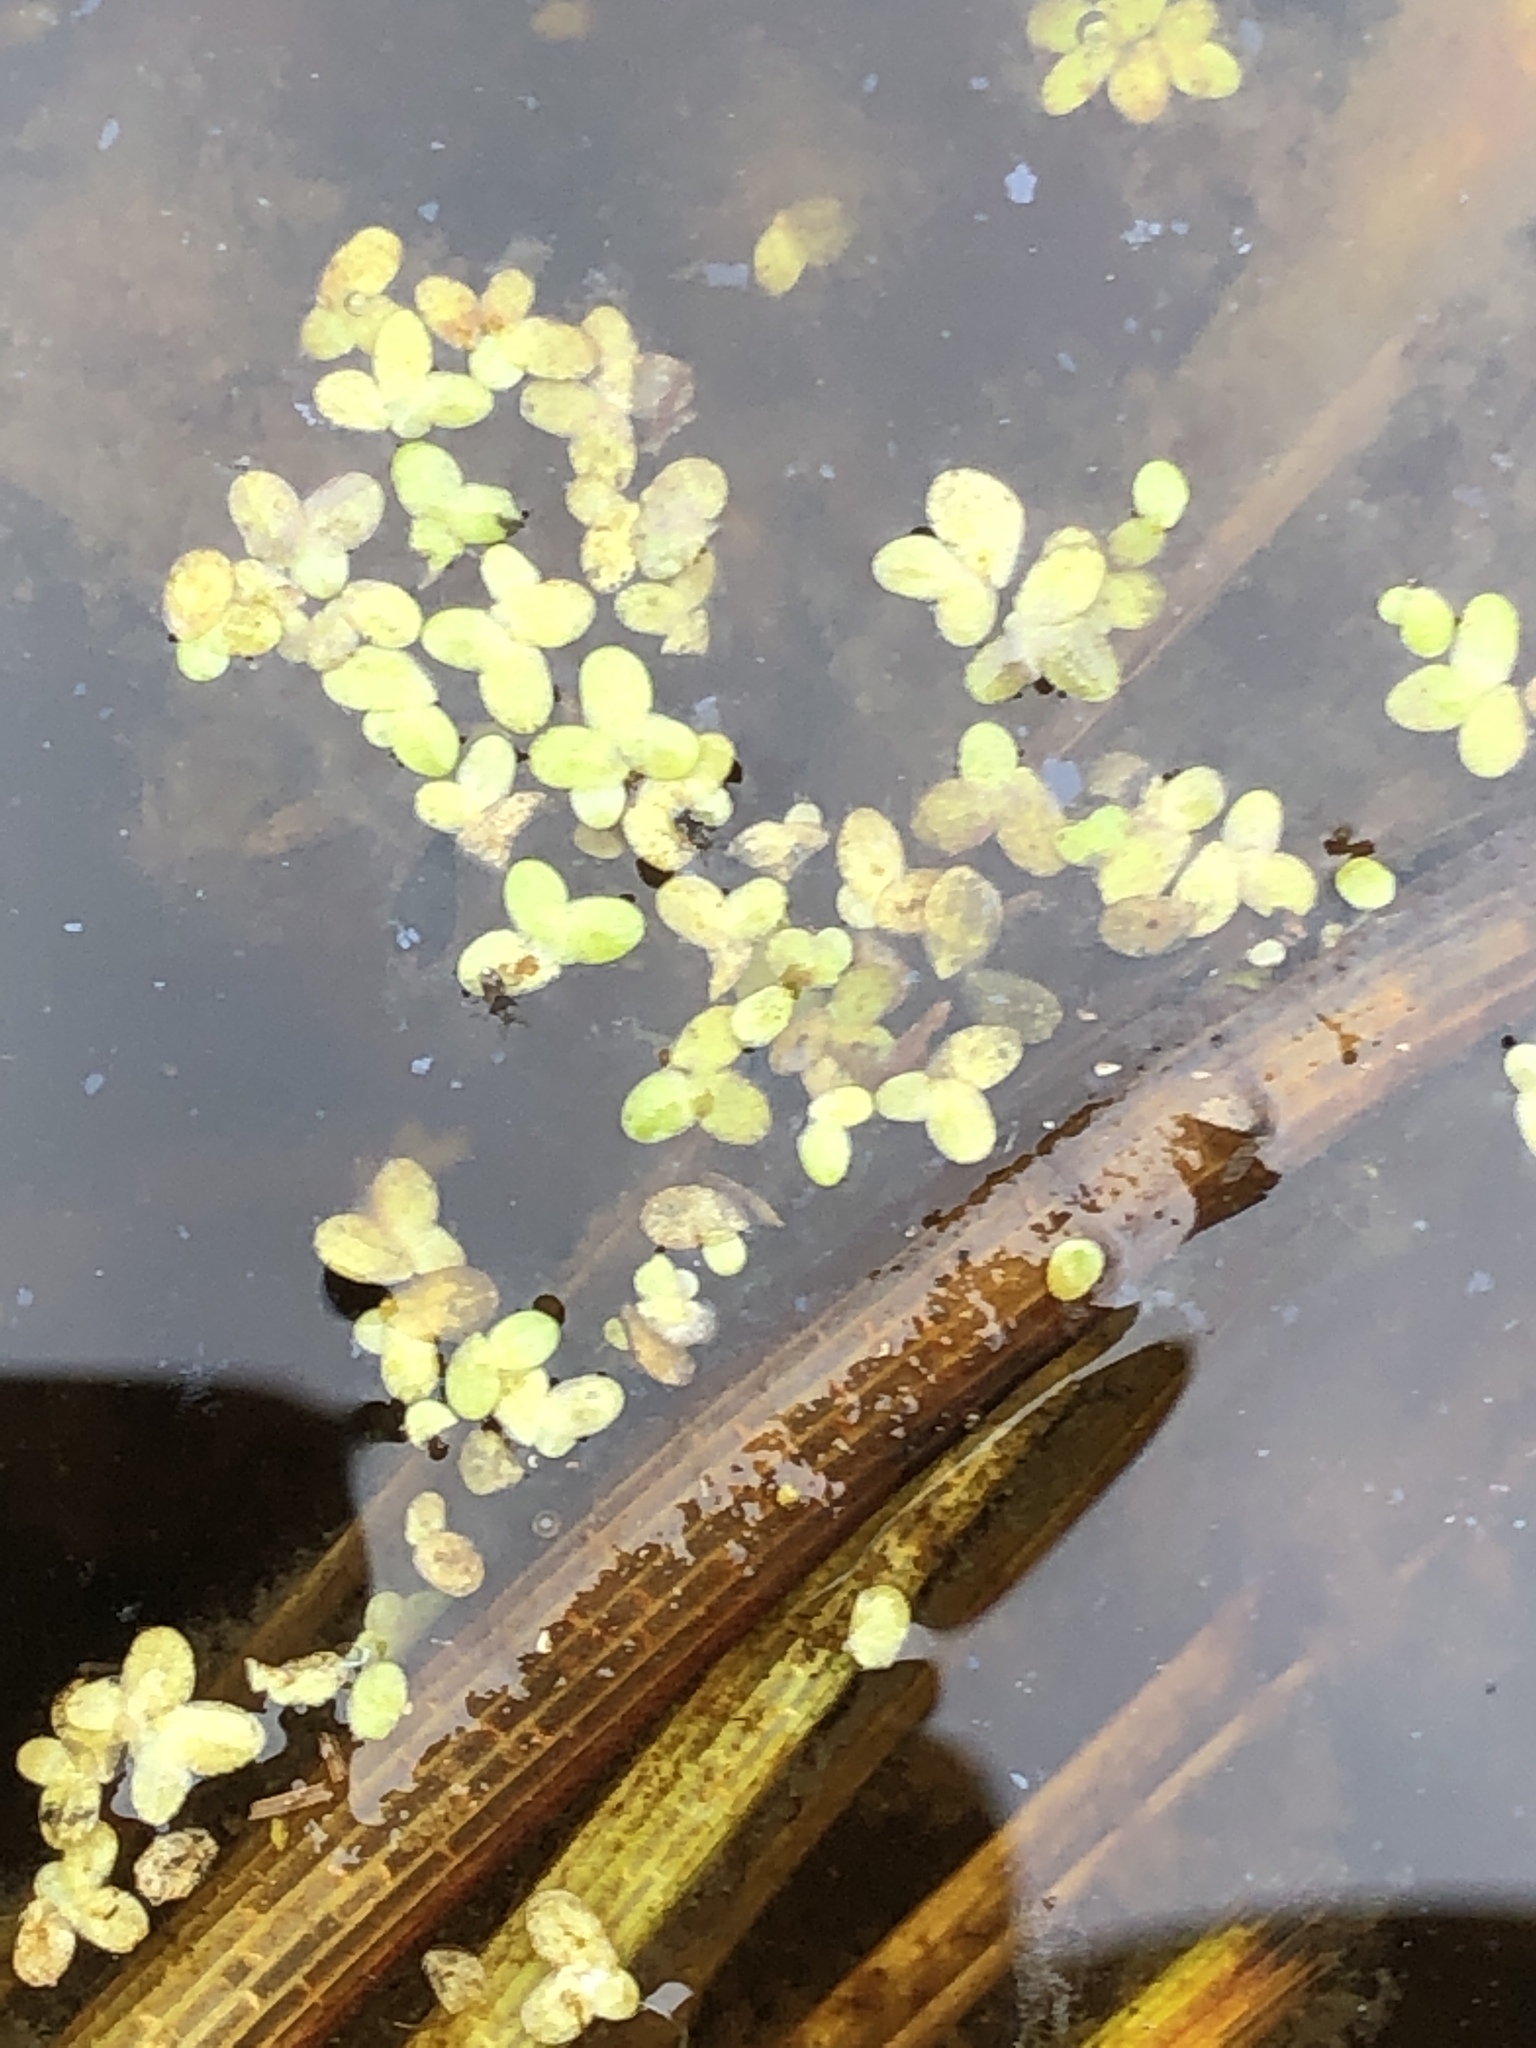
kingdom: Plantae
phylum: Tracheophyta
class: Liliopsida
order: Alismatales
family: Araceae
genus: Lemna
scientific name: Lemna minor
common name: Common duckweed
